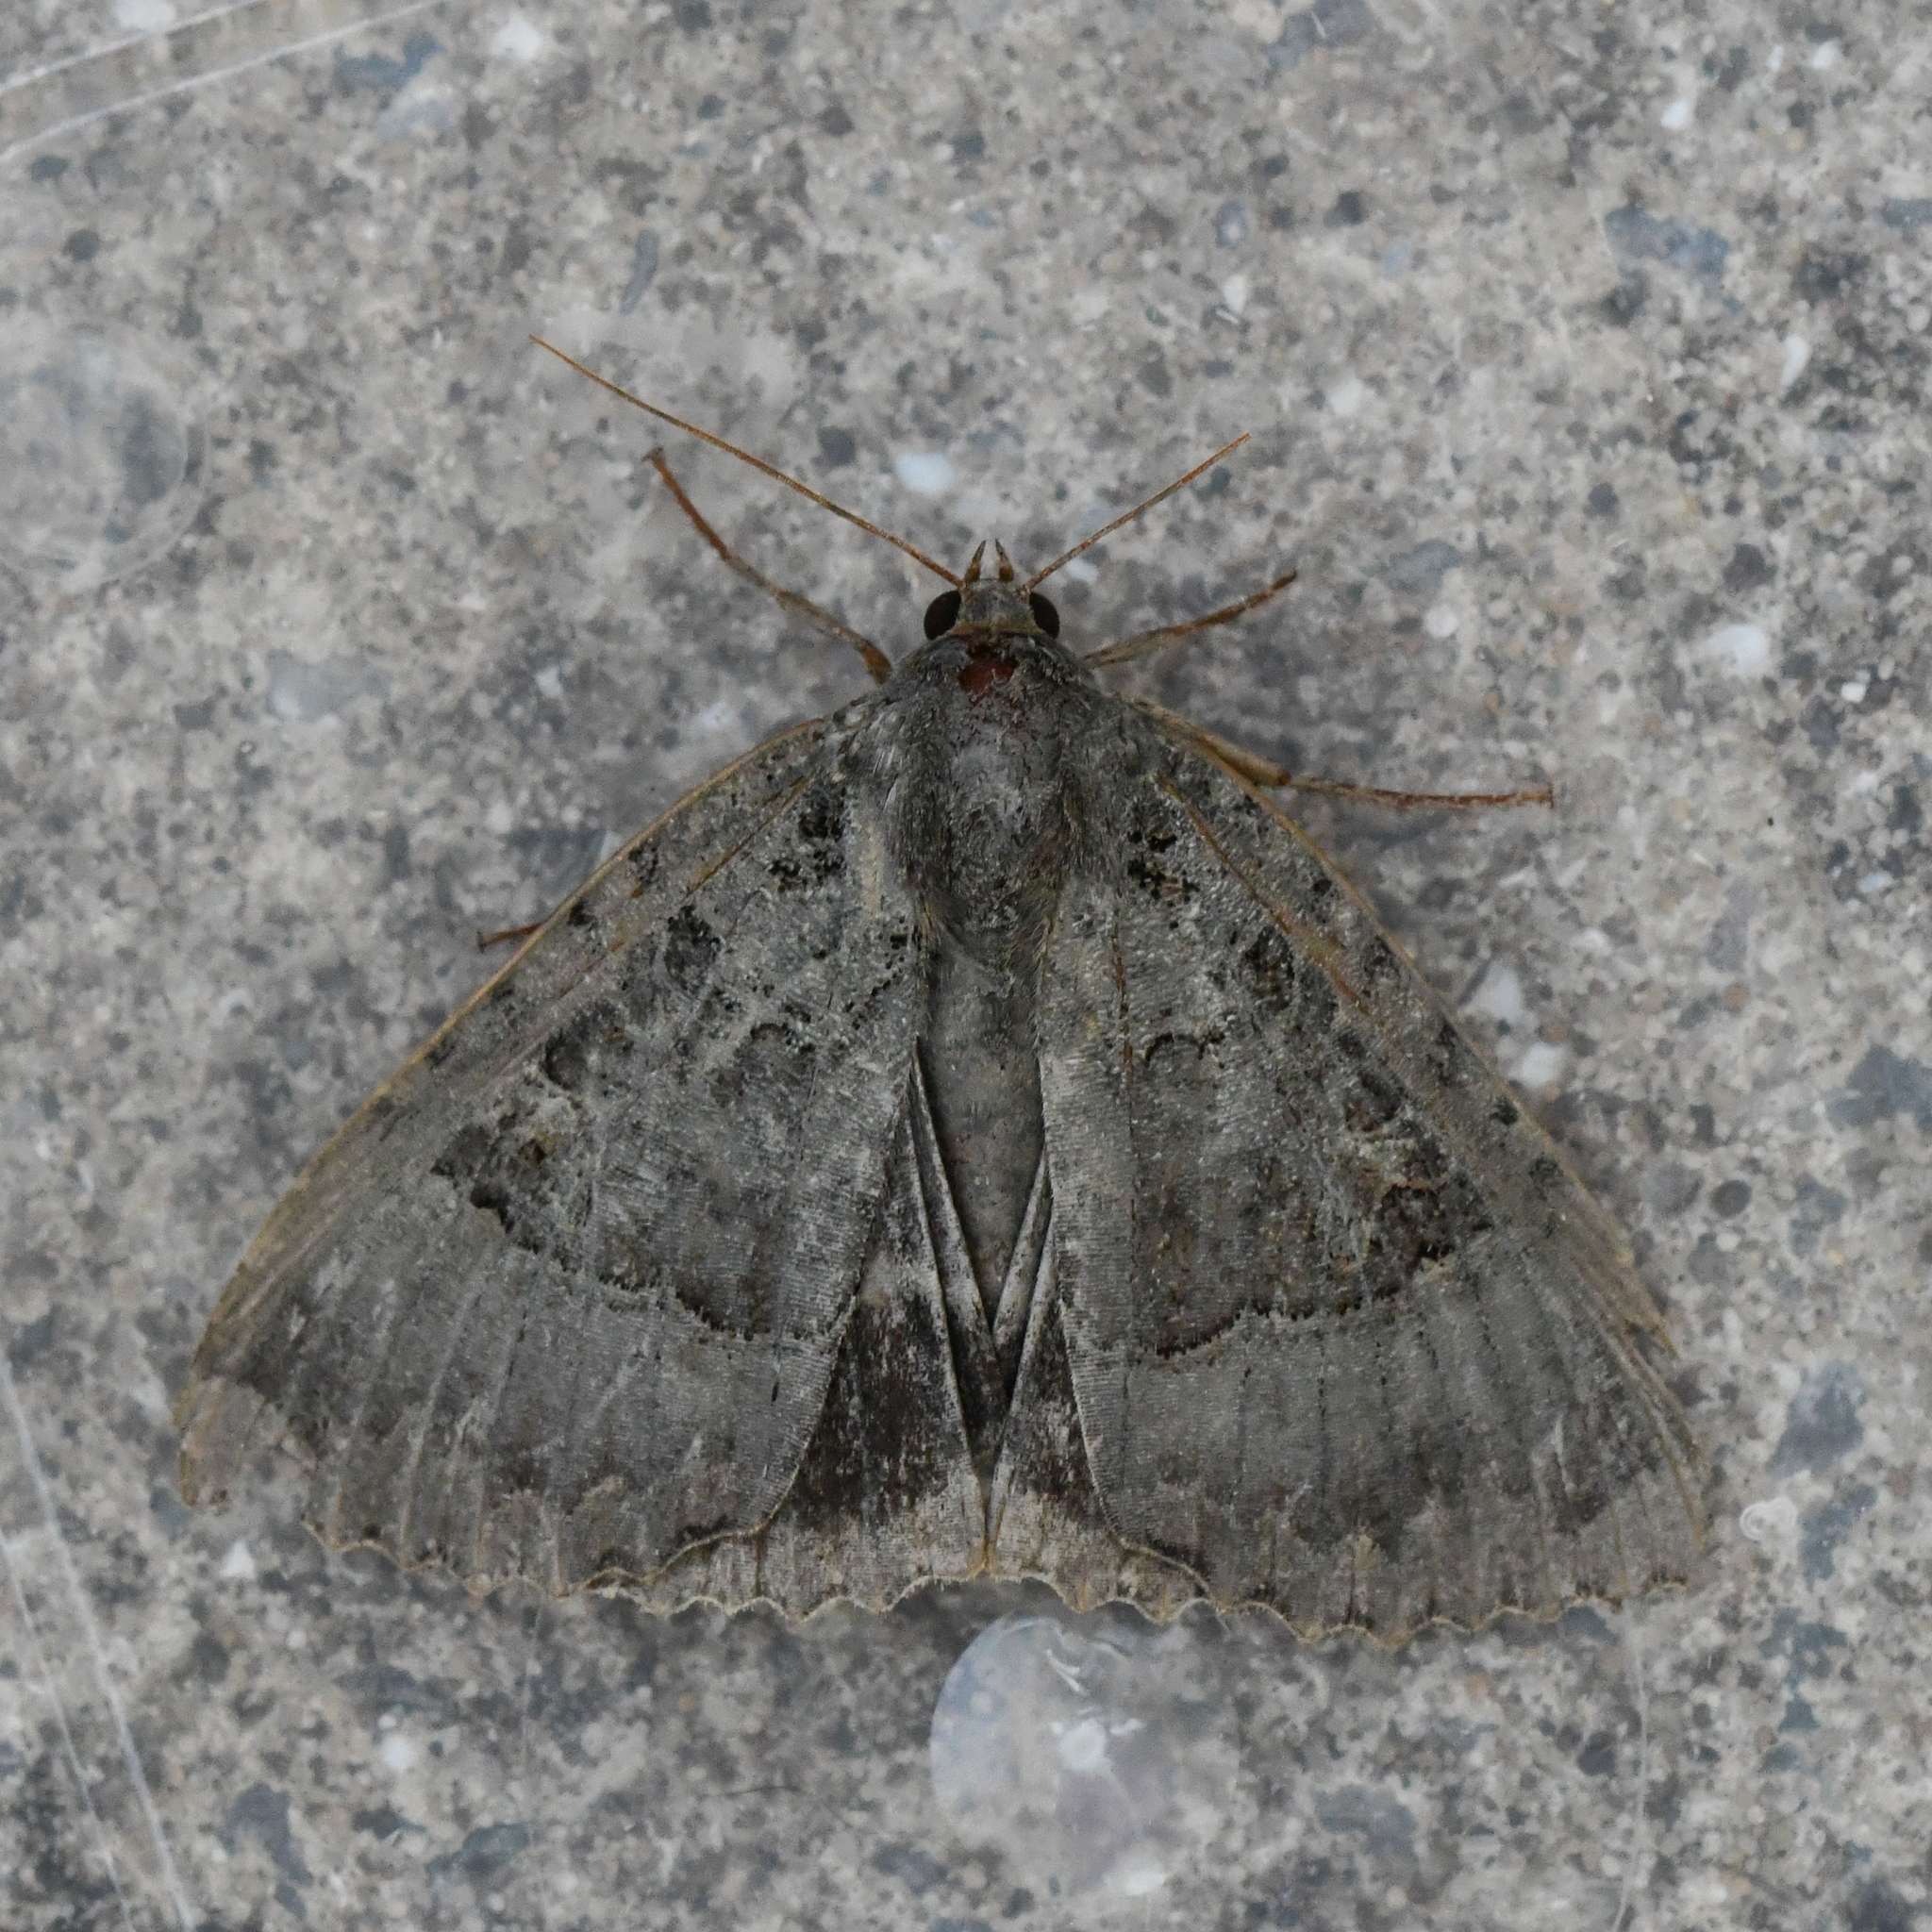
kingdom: Animalia
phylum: Arthropoda
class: Insecta
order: Lepidoptera
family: Noctuidae
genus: Mormo
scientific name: Mormo maura
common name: Old lady
